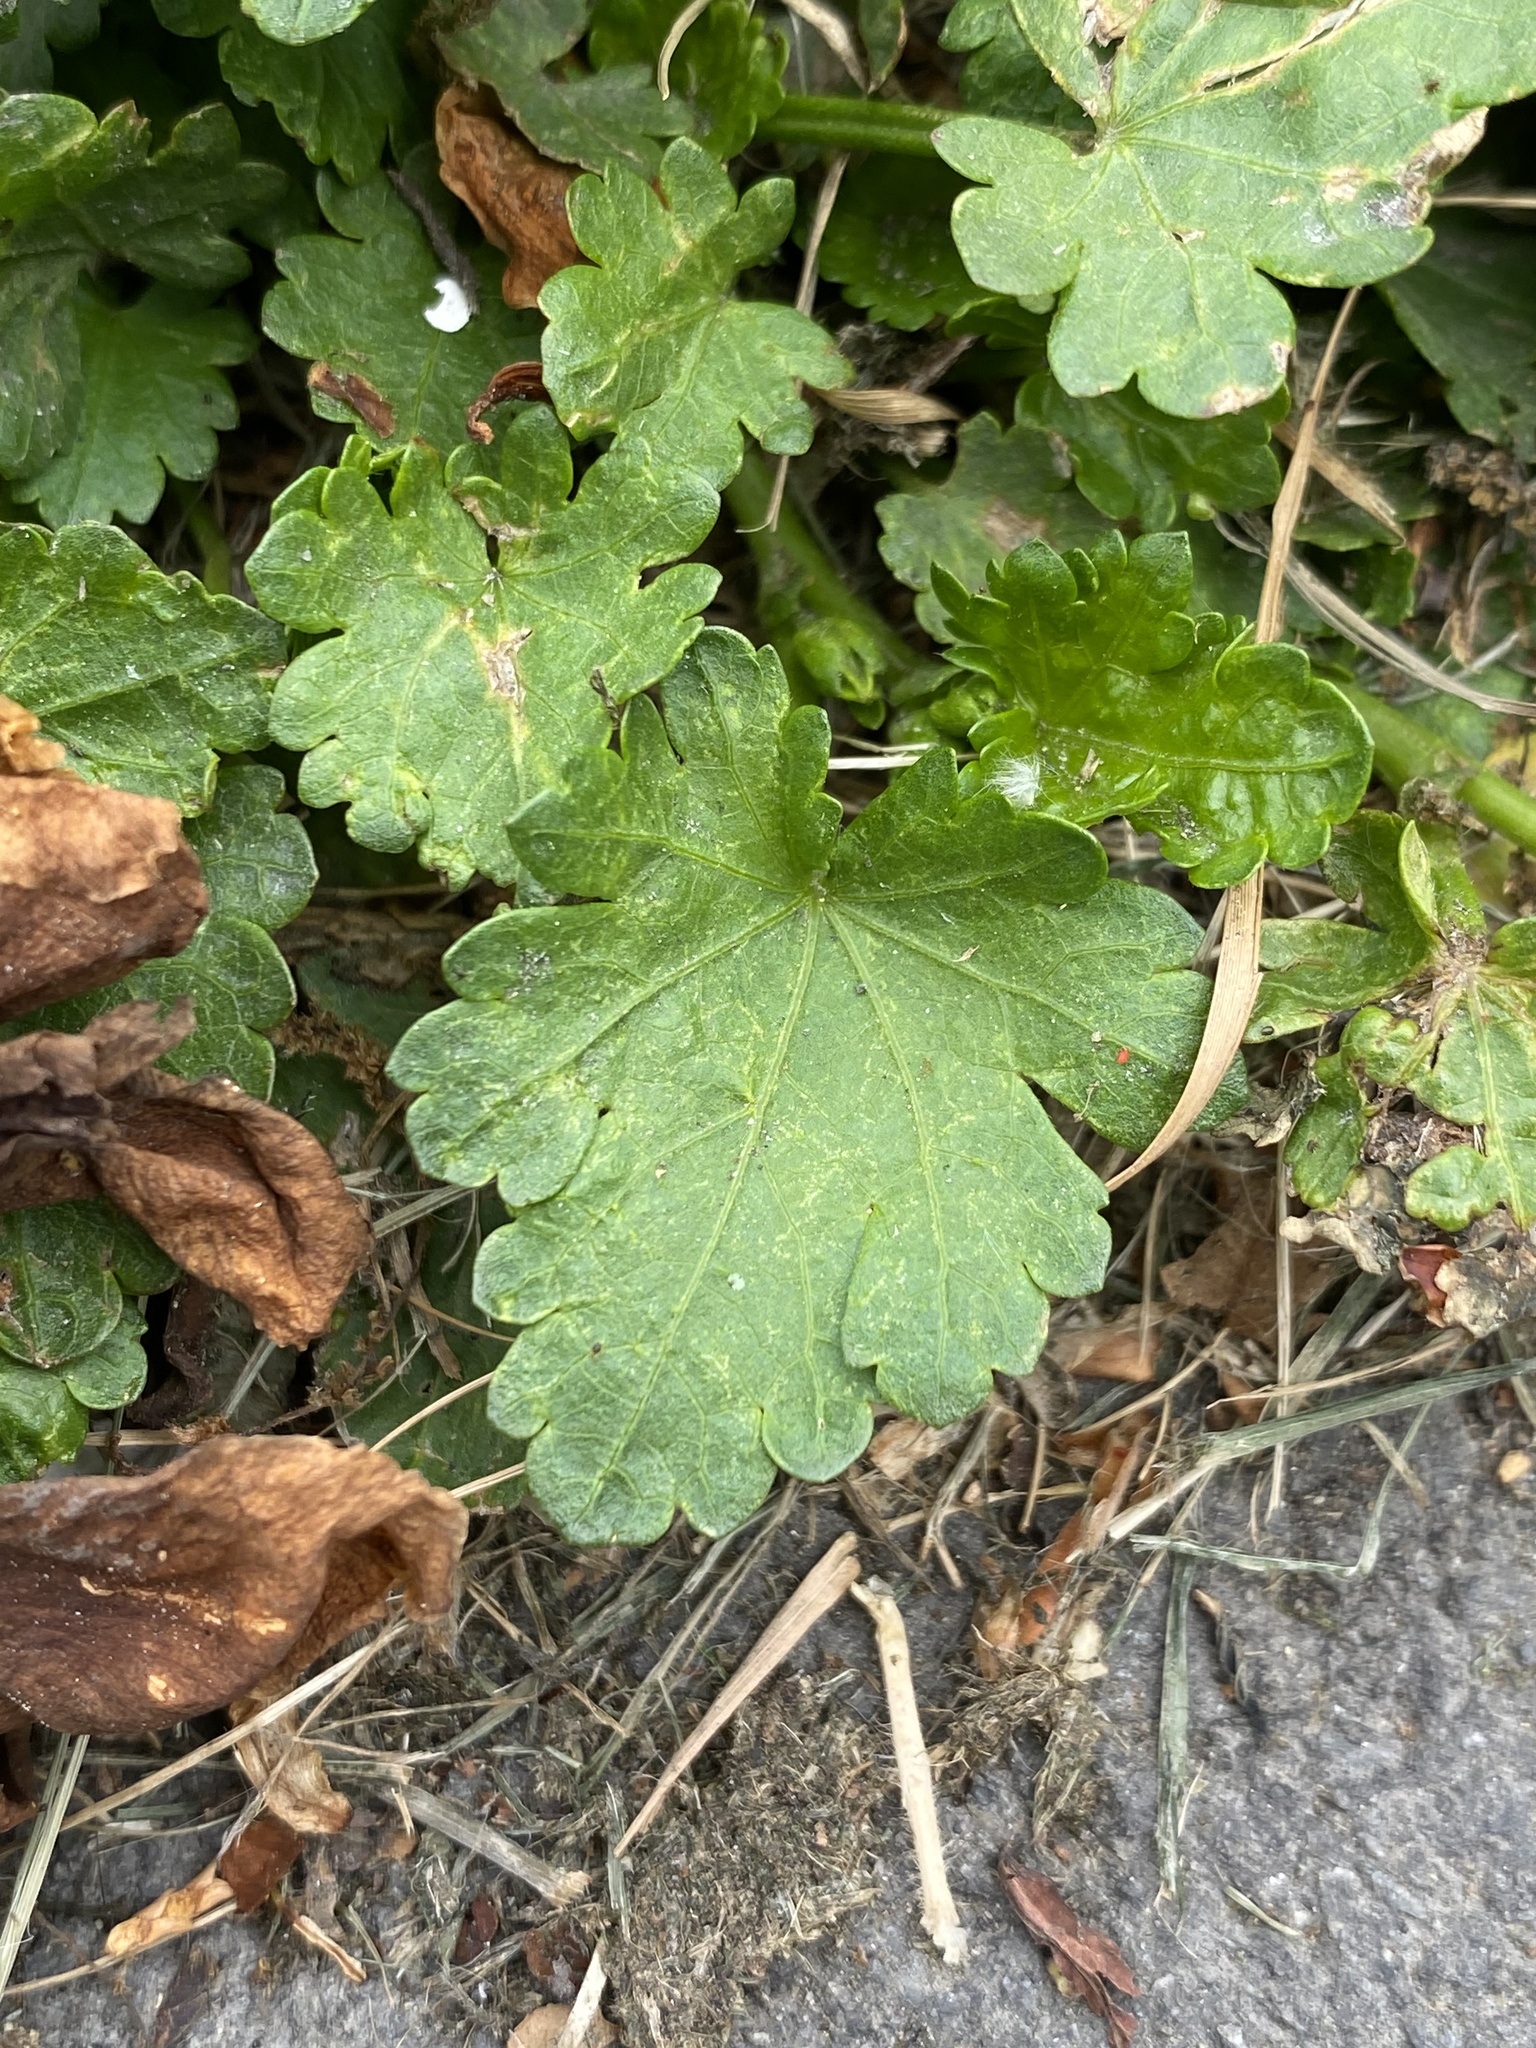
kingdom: Plantae
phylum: Tracheophyta
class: Magnoliopsida
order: Malvales
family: Malvaceae
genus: Modiola
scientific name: Modiola caroliniana
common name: Carolina bristlemallow
